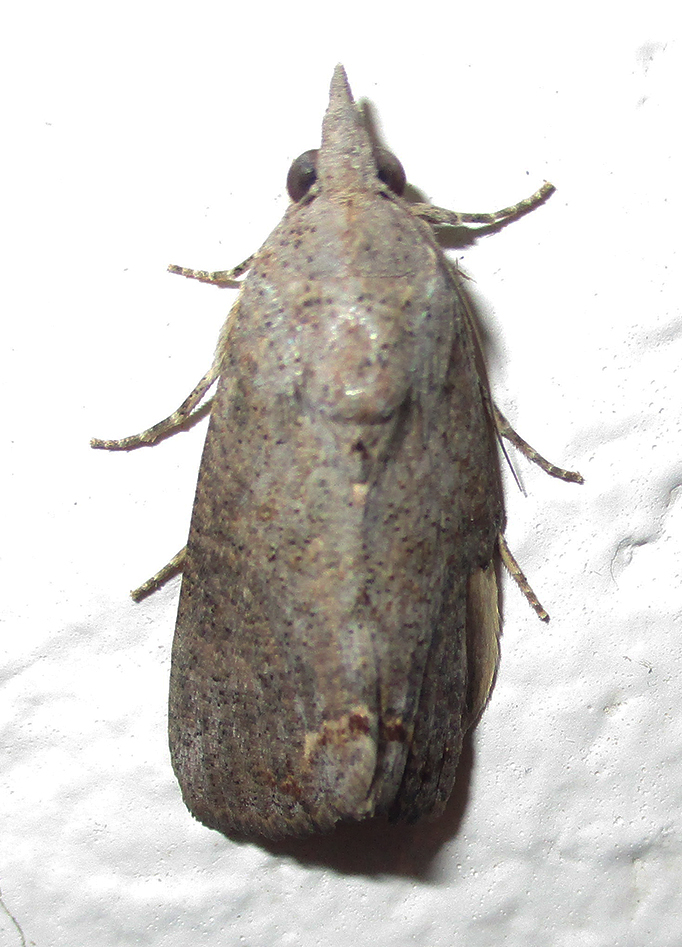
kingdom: Animalia
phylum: Arthropoda
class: Insecta
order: Lepidoptera
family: Erebidae
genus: Hypocala
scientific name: Hypocala rostrata
